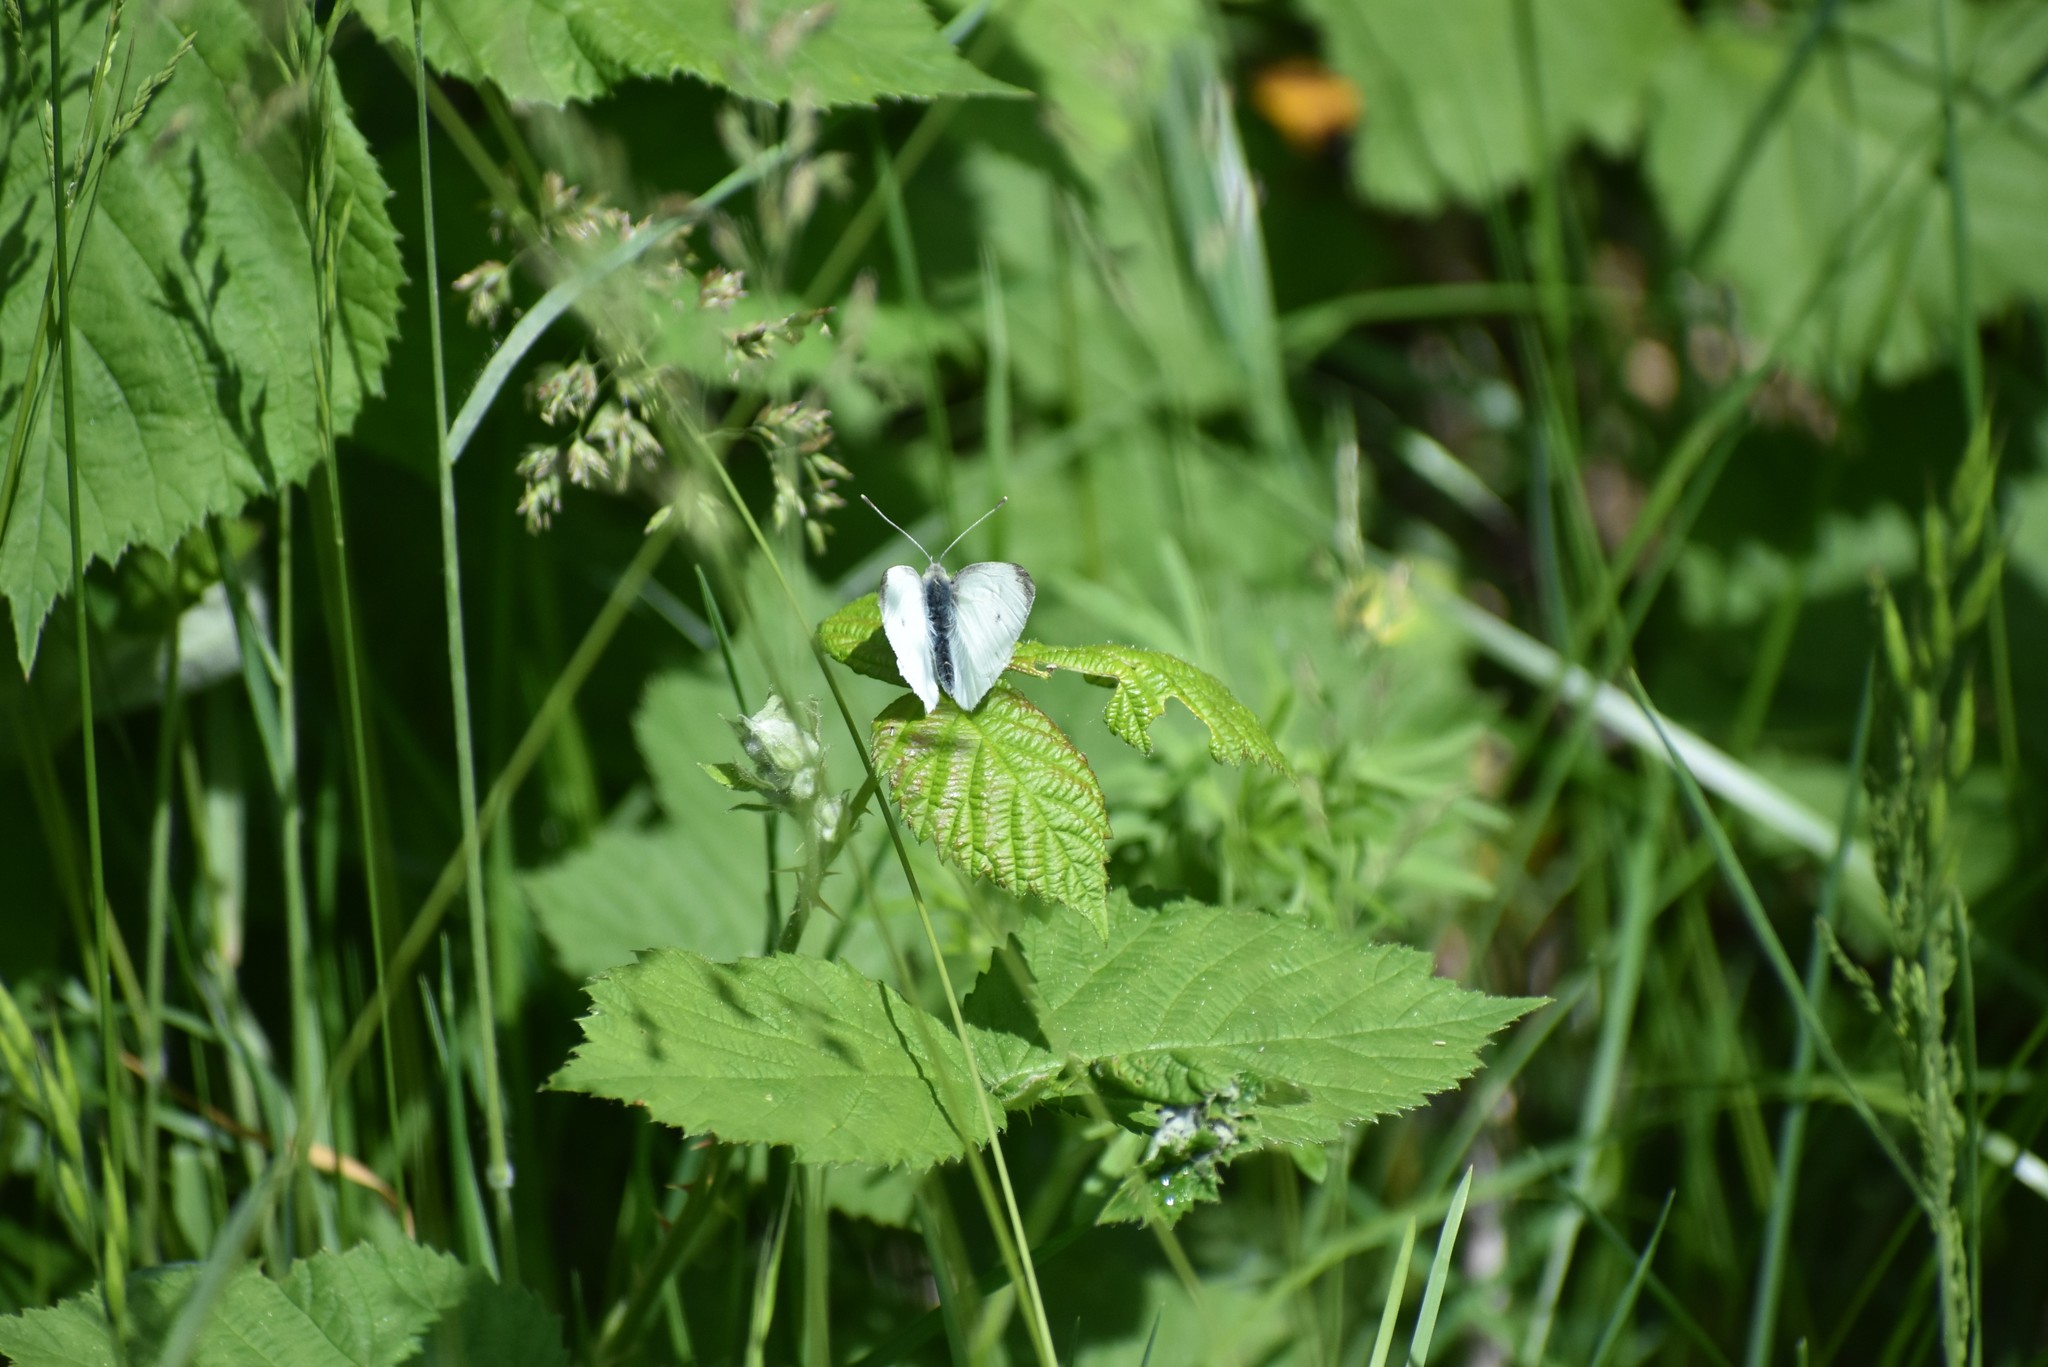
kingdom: Animalia
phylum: Arthropoda
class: Insecta
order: Lepidoptera
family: Pieridae
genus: Pieris
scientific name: Pieris rapae
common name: Small white
